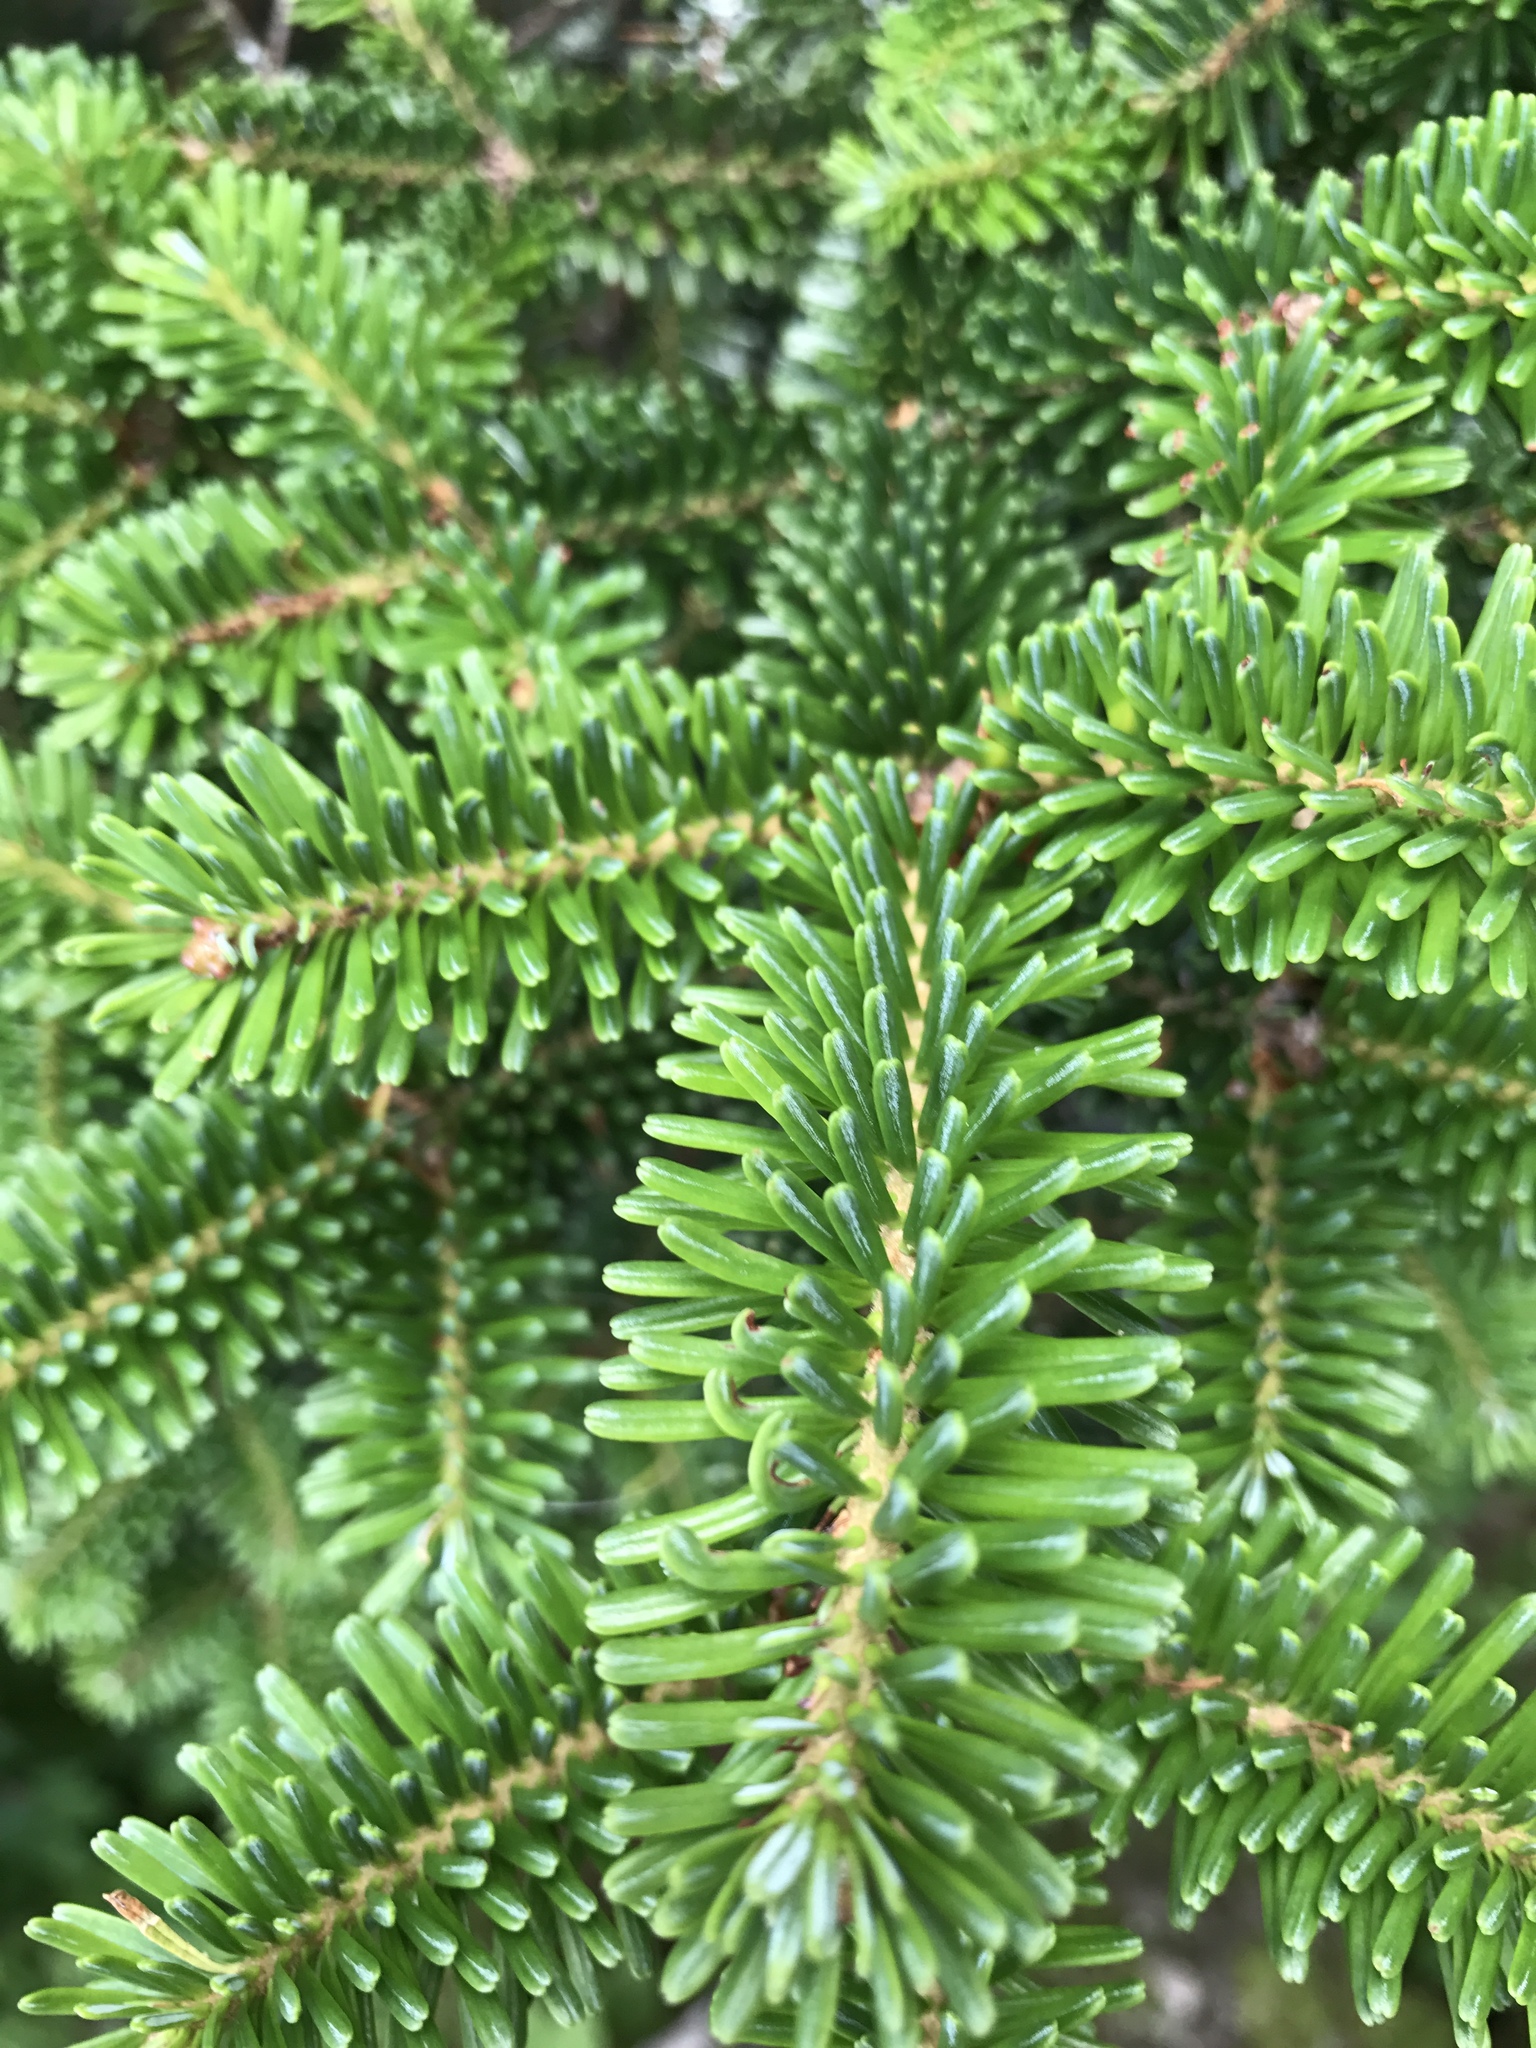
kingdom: Plantae
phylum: Tracheophyta
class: Pinopsida
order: Pinales
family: Pinaceae
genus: Abies
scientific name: Abies fraseri
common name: Fraser fir
